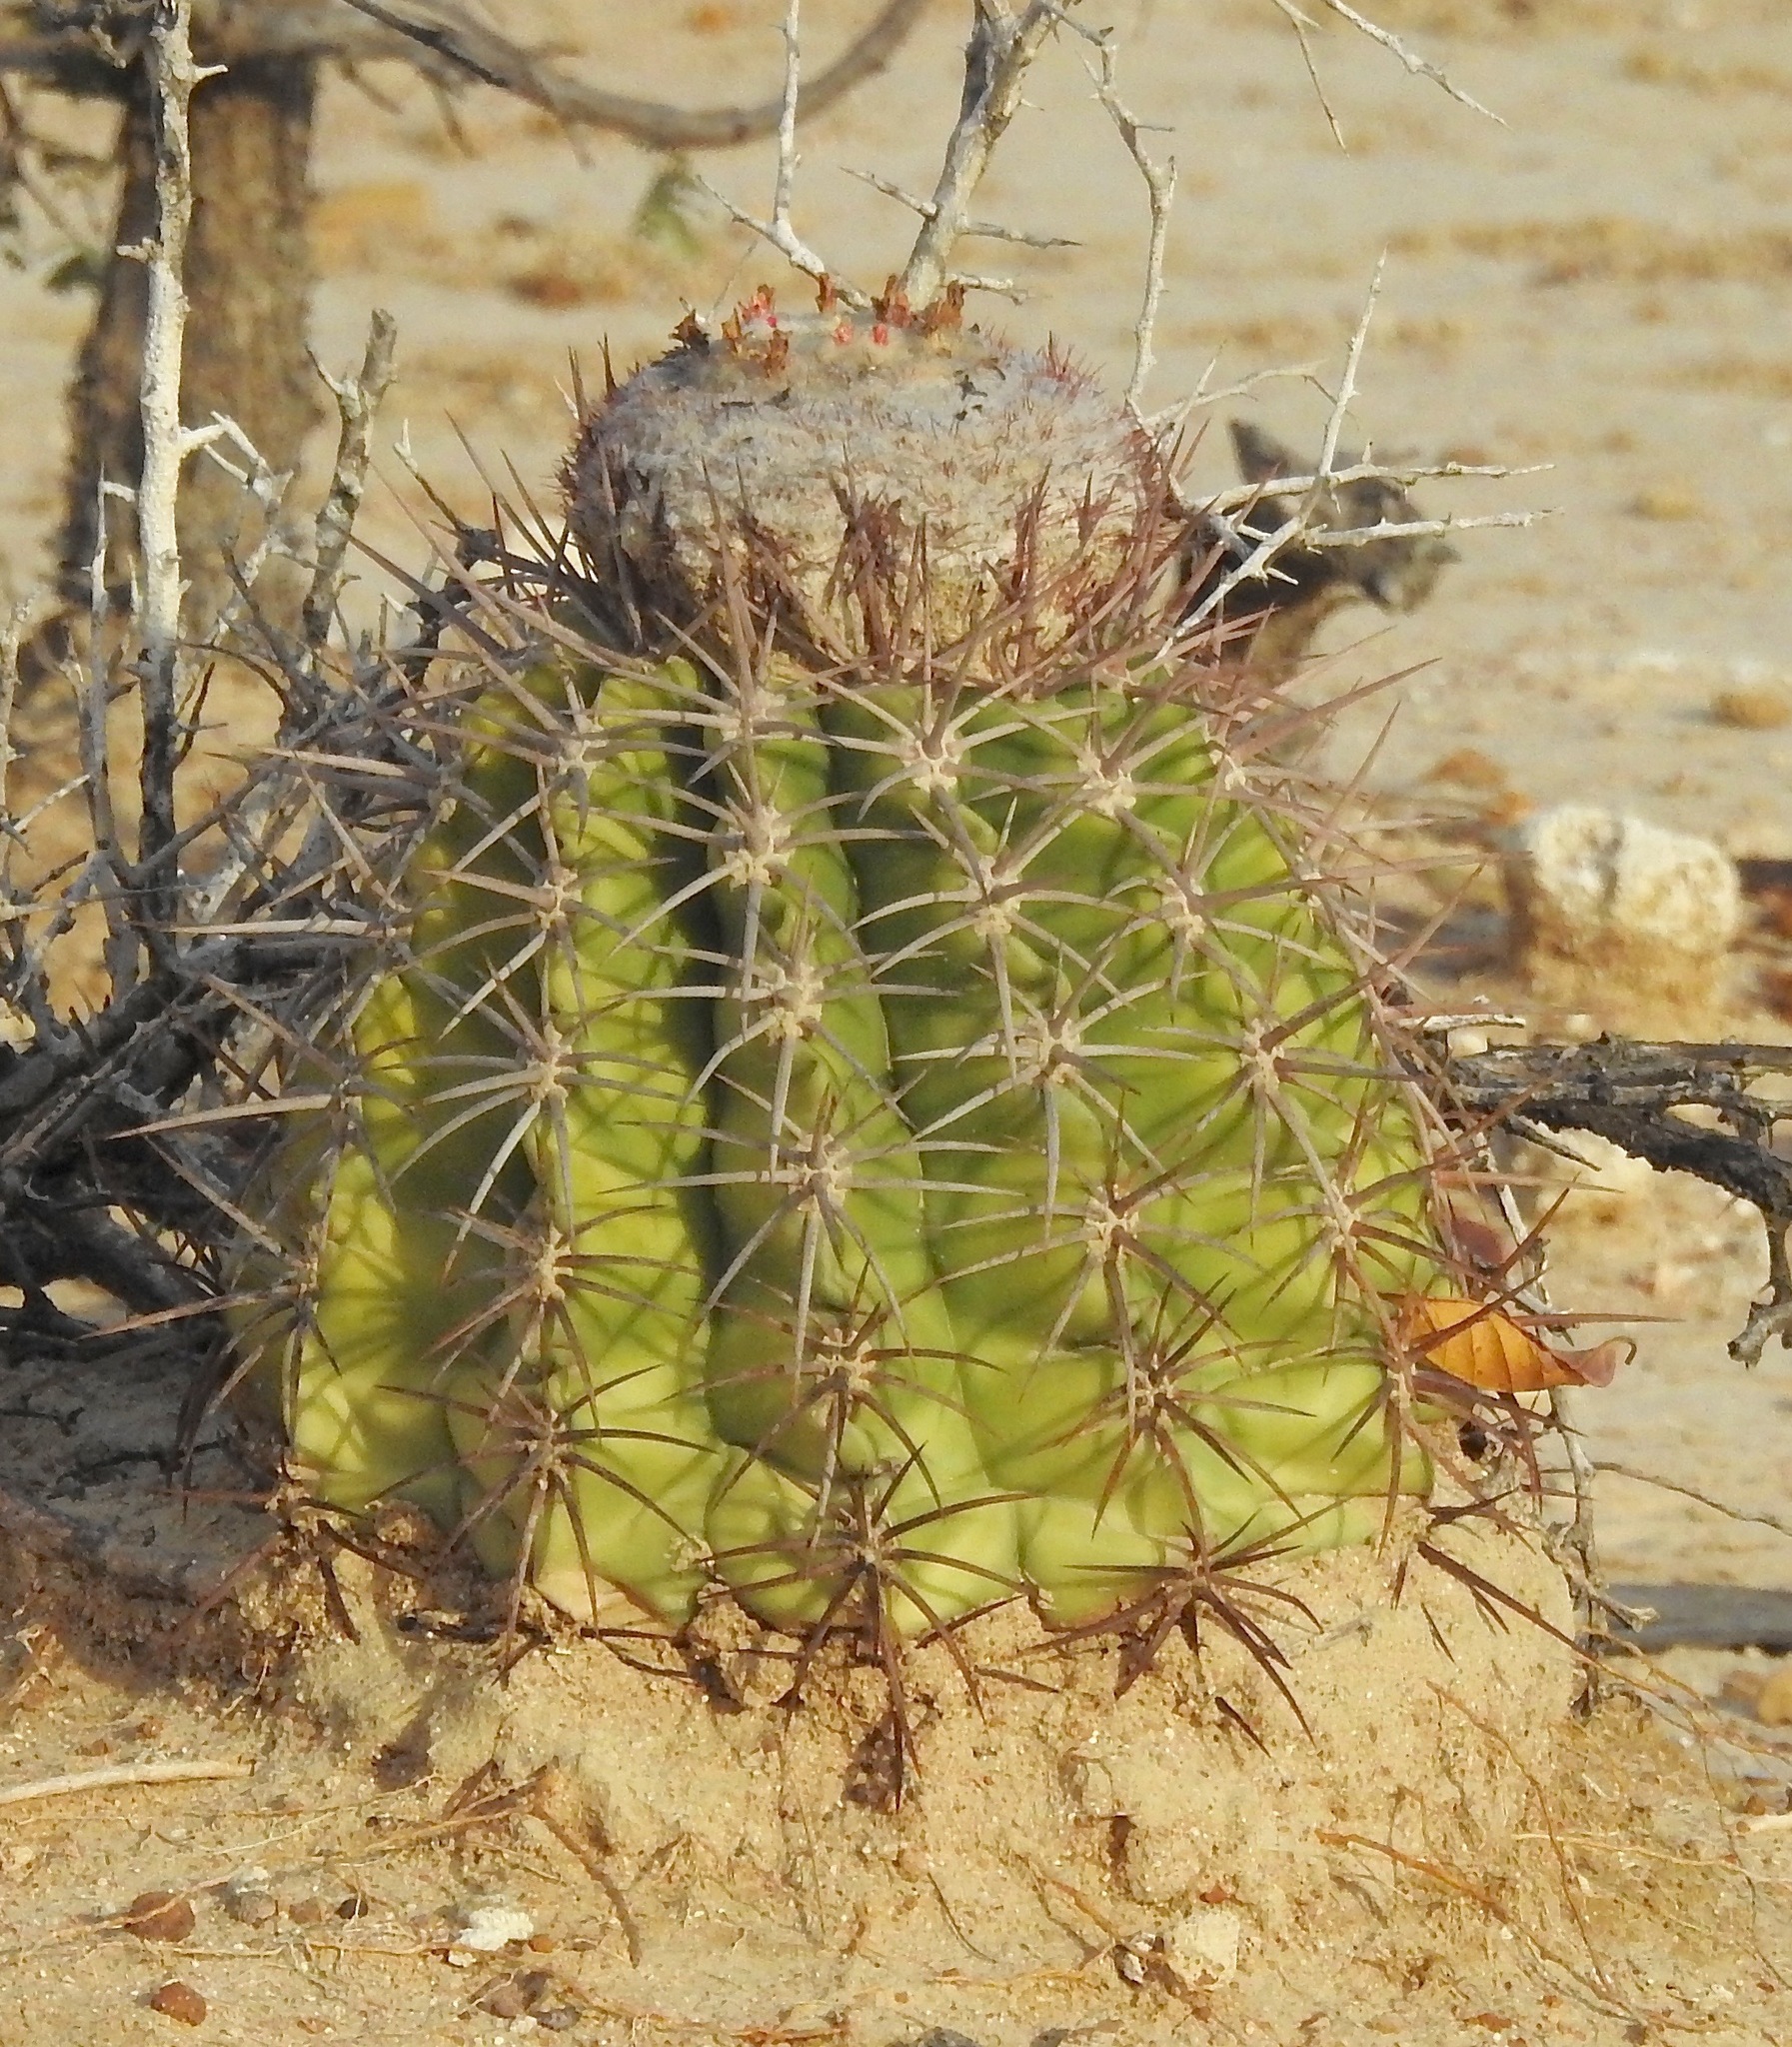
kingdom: Plantae
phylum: Tracheophyta
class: Magnoliopsida
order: Caryophyllales
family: Cactaceae
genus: Melocactus
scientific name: Melocactus curvispinus
